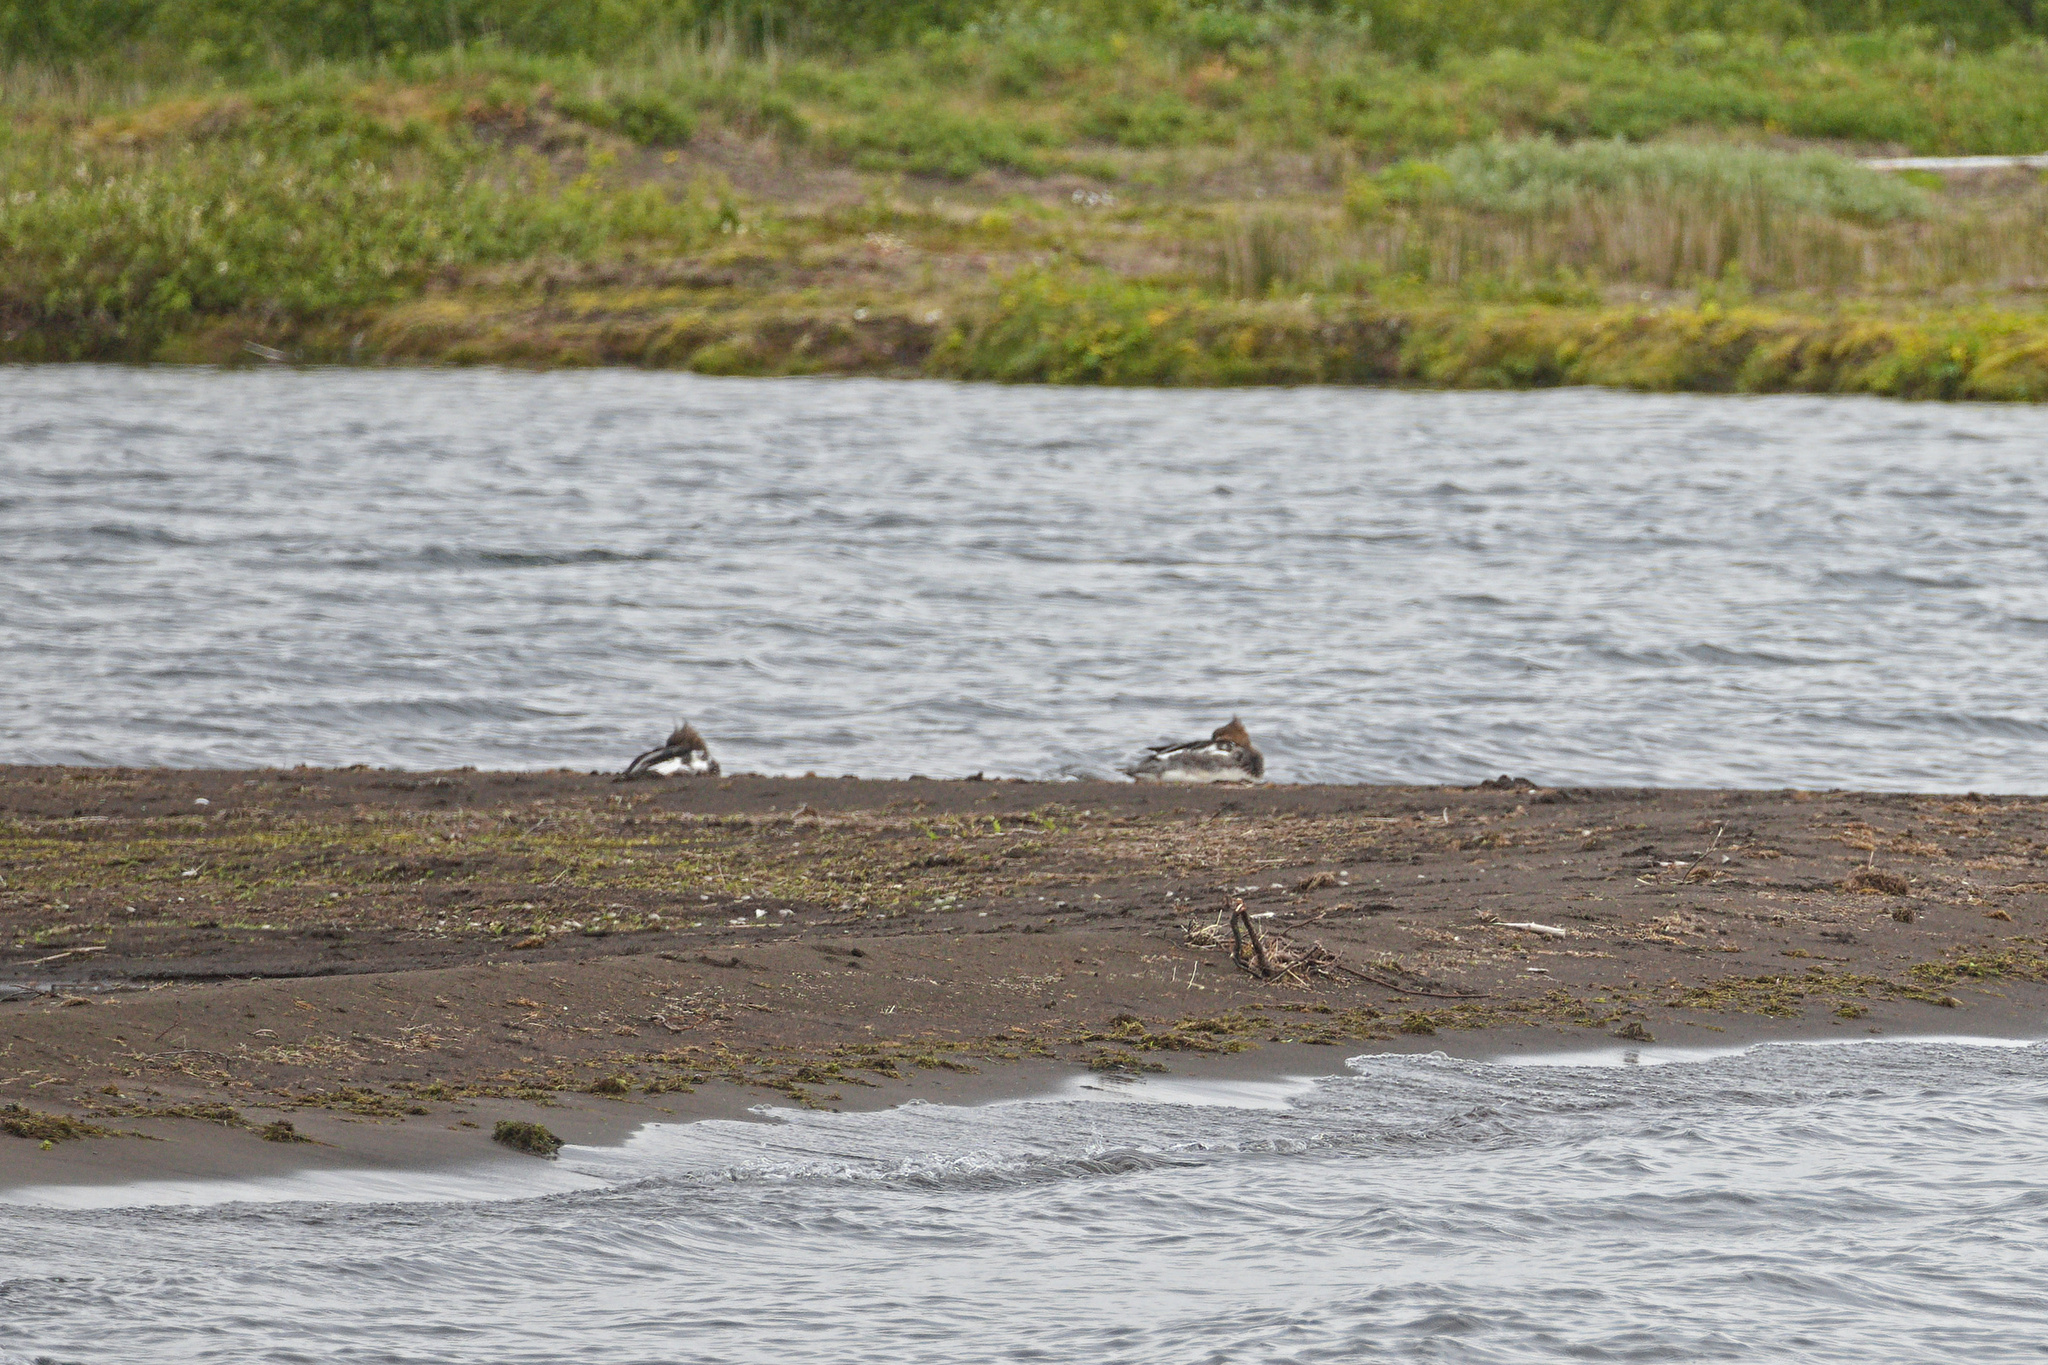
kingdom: Animalia
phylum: Chordata
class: Aves
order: Anseriformes
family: Anatidae
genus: Mergus
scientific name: Mergus serrator
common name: Red-breasted merganser
